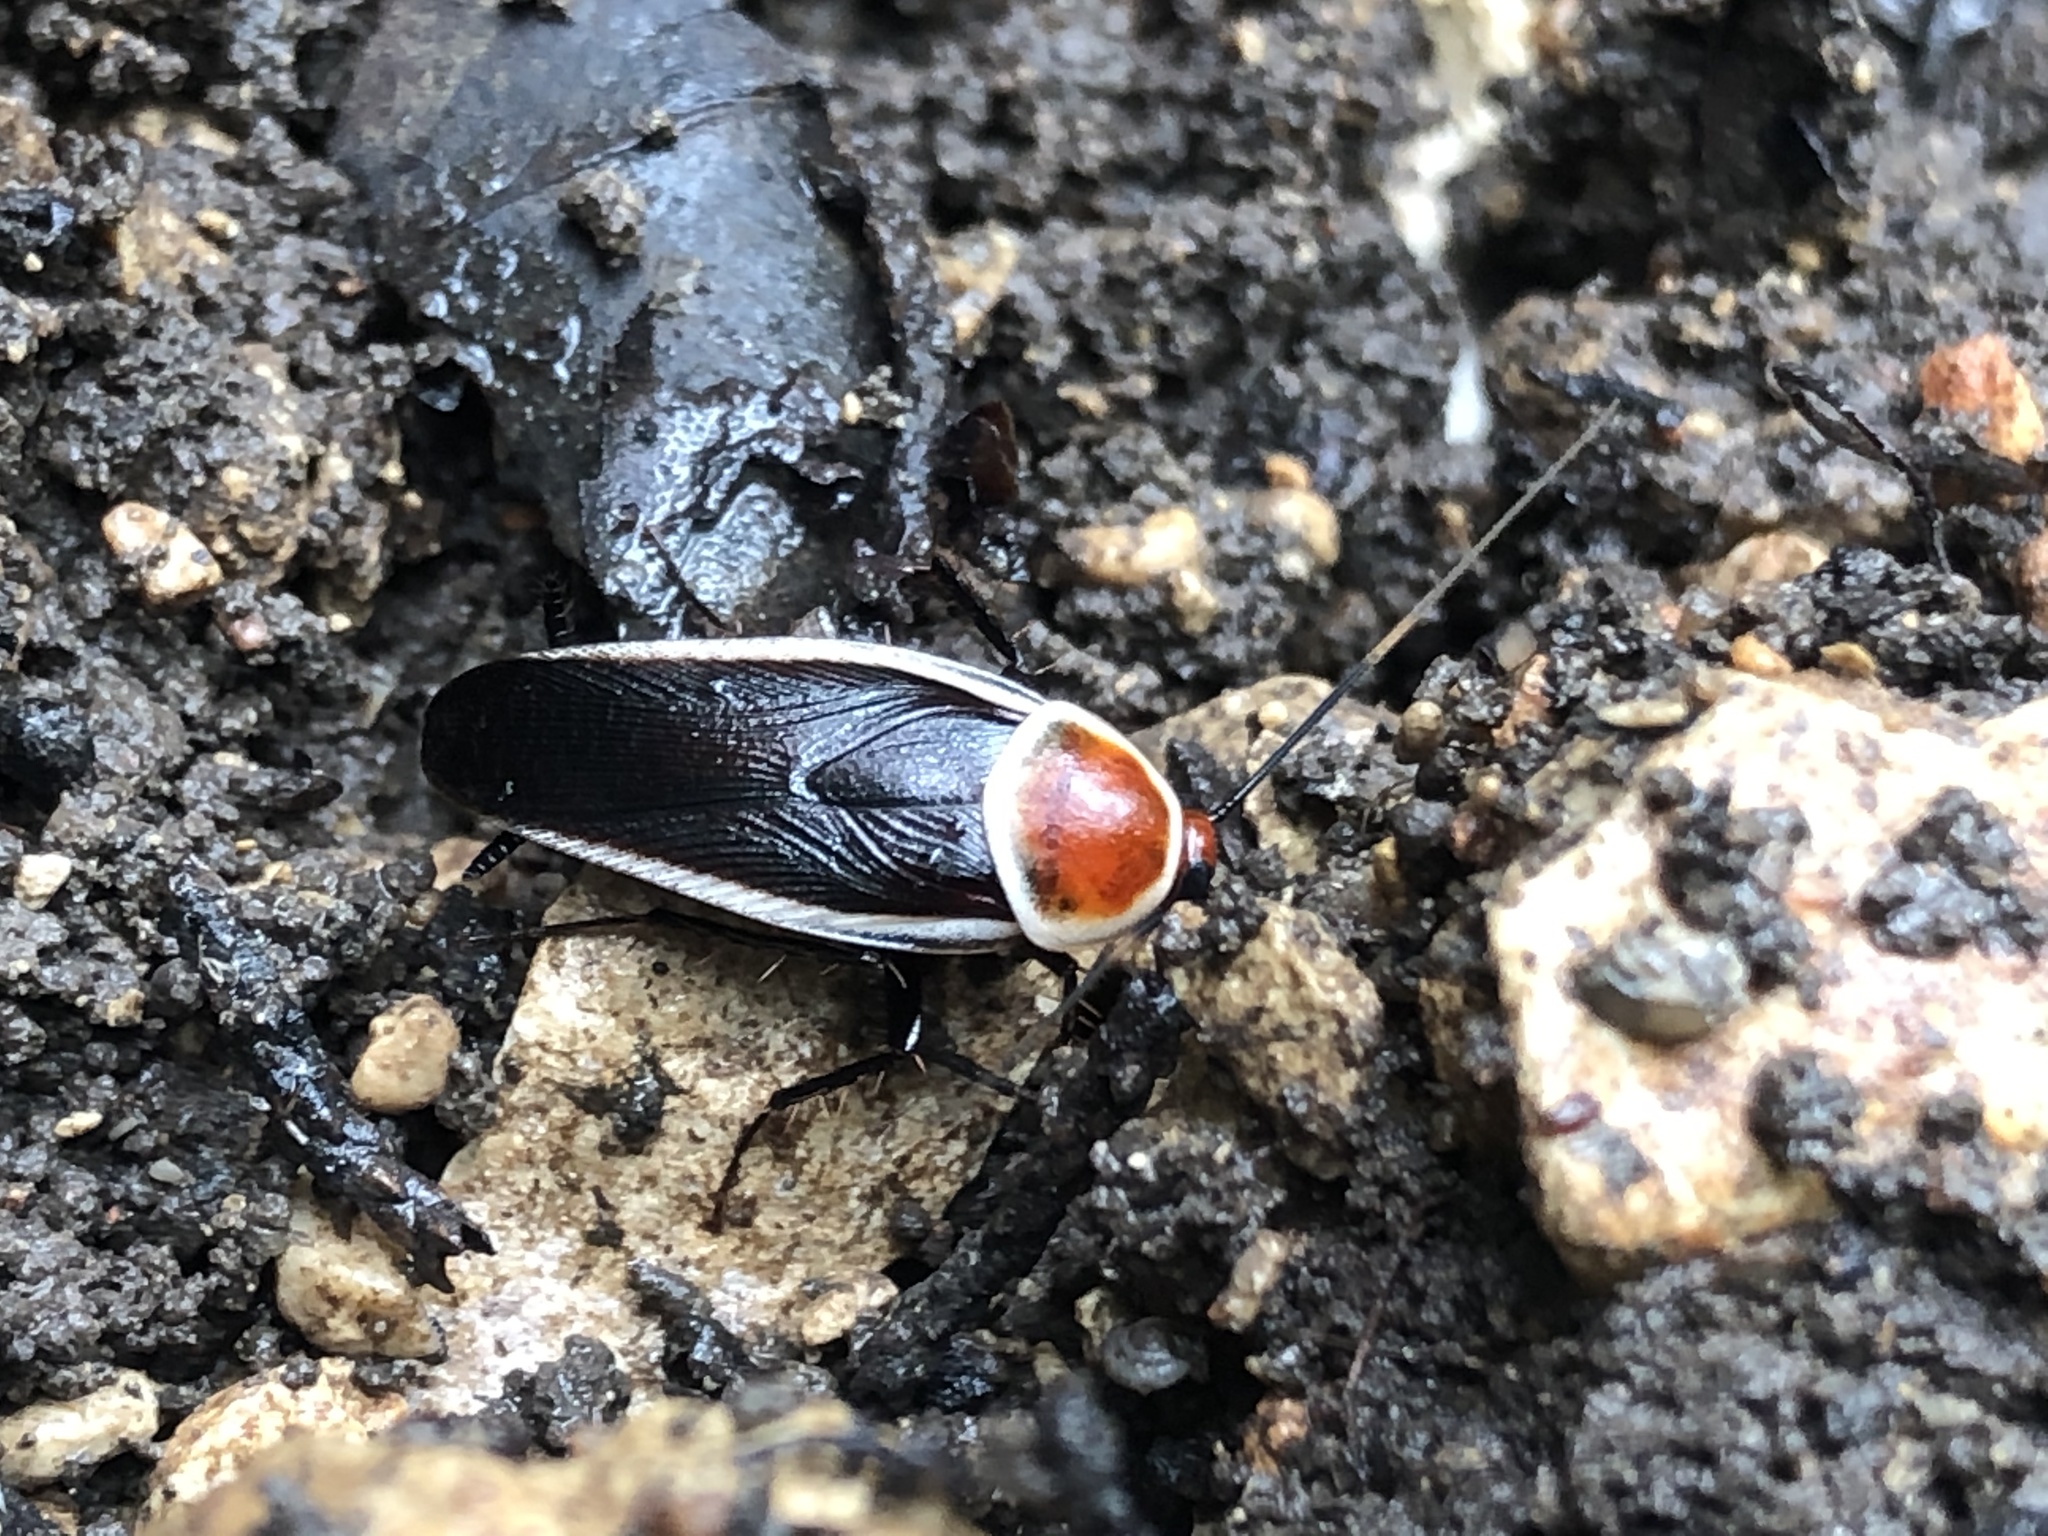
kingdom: Animalia
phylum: Arthropoda
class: Insecta
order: Blattodea
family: Ectobiidae
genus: Pseudomops
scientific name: Pseudomops septentrionalis
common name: Pale-bordered field cockroach
